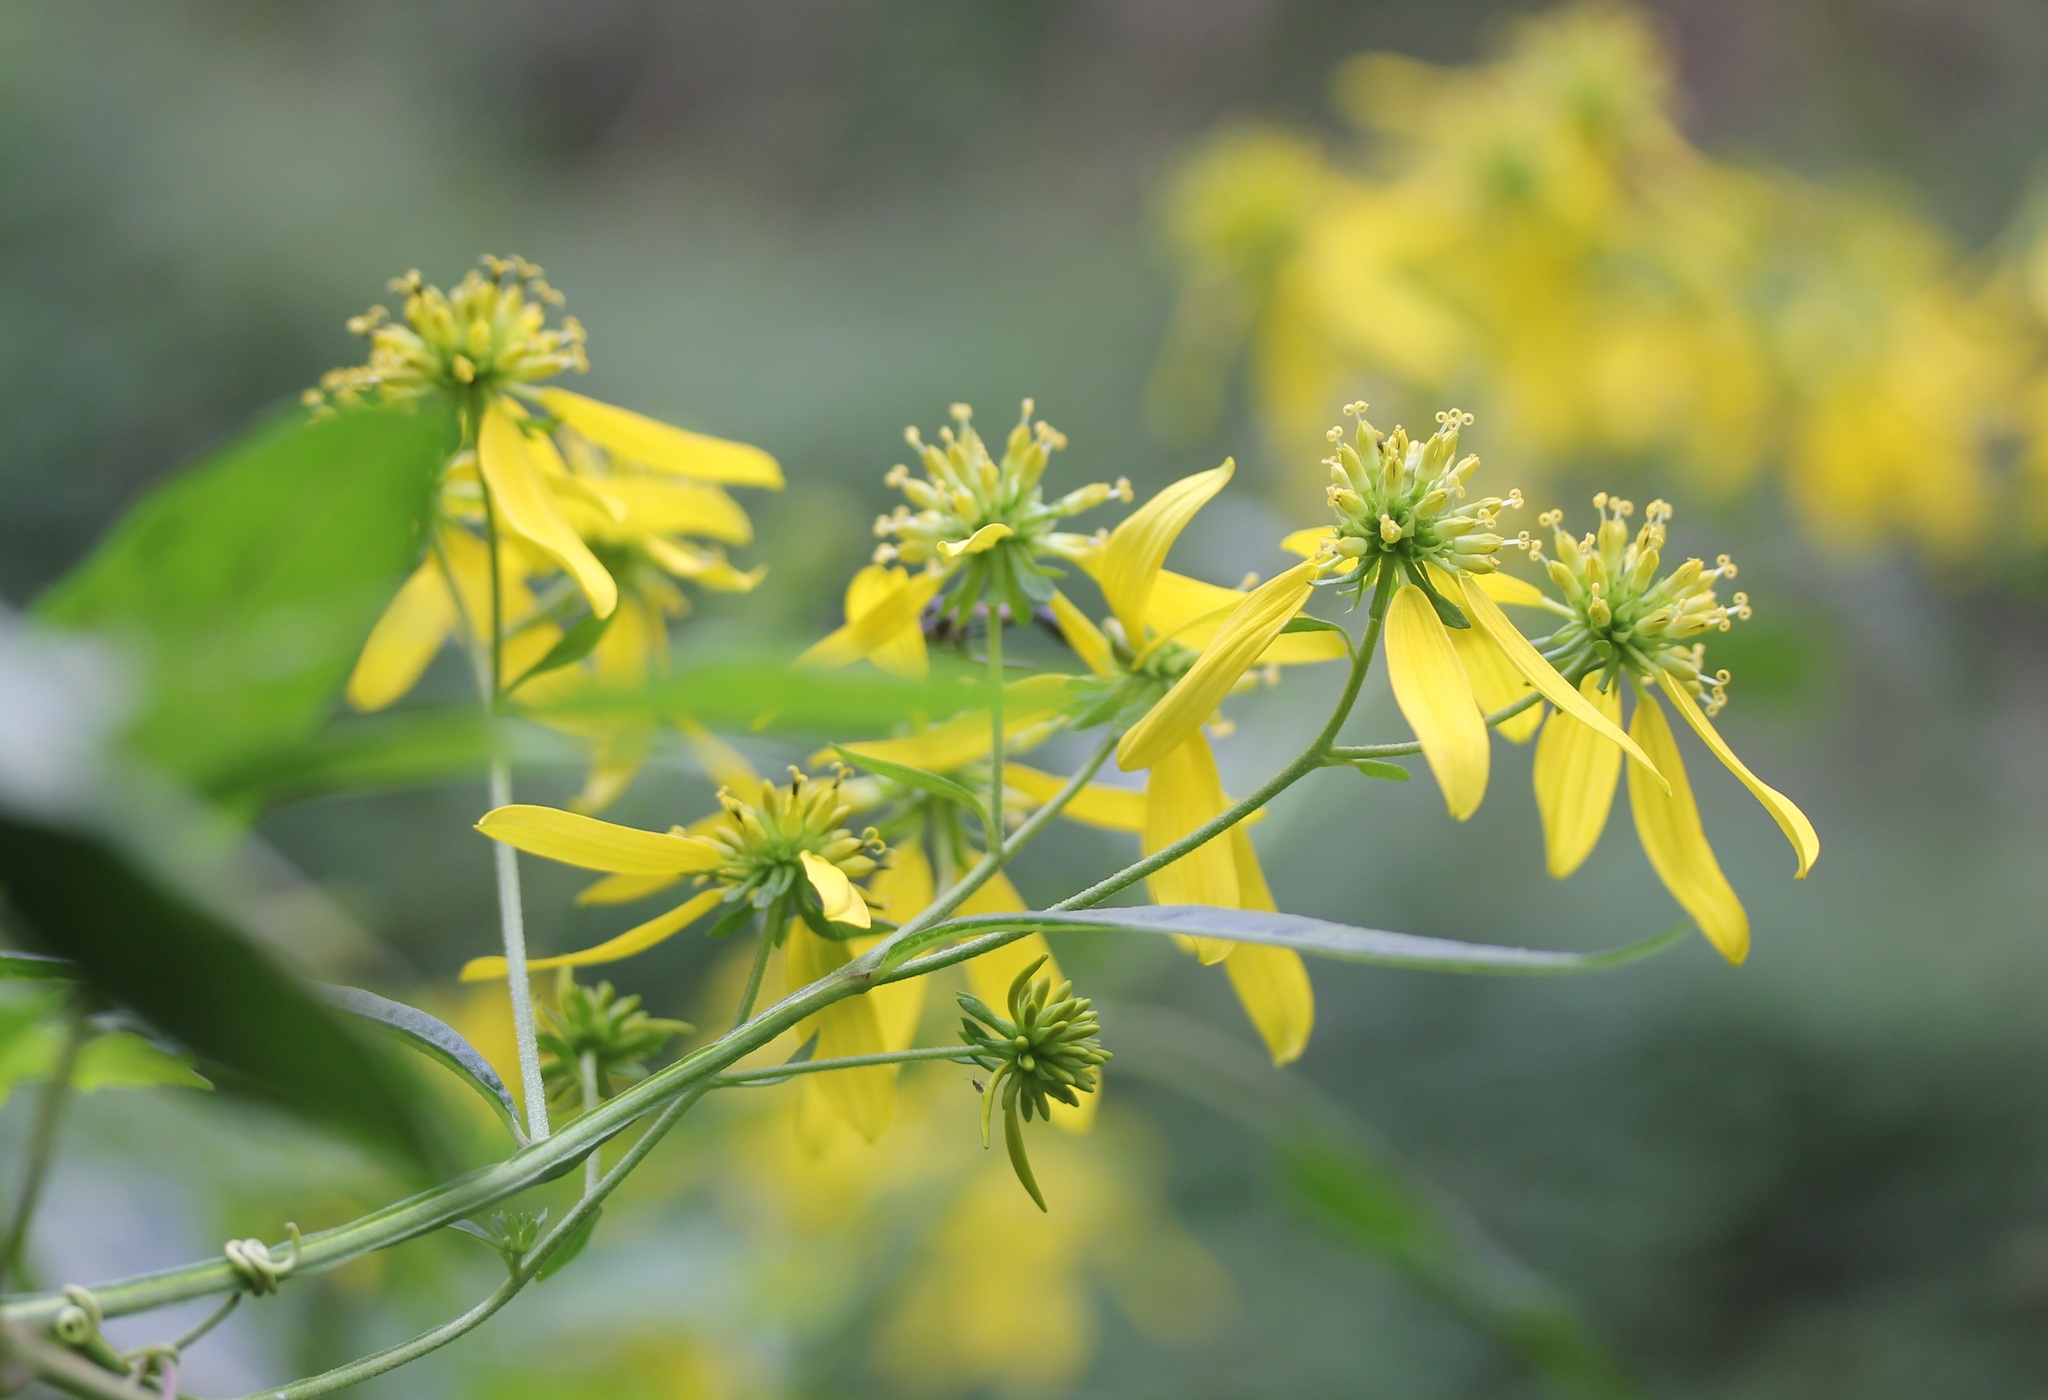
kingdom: Plantae
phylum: Tracheophyta
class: Magnoliopsida
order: Asterales
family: Asteraceae
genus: Verbesina
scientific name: Verbesina alternifolia
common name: Wingstem
